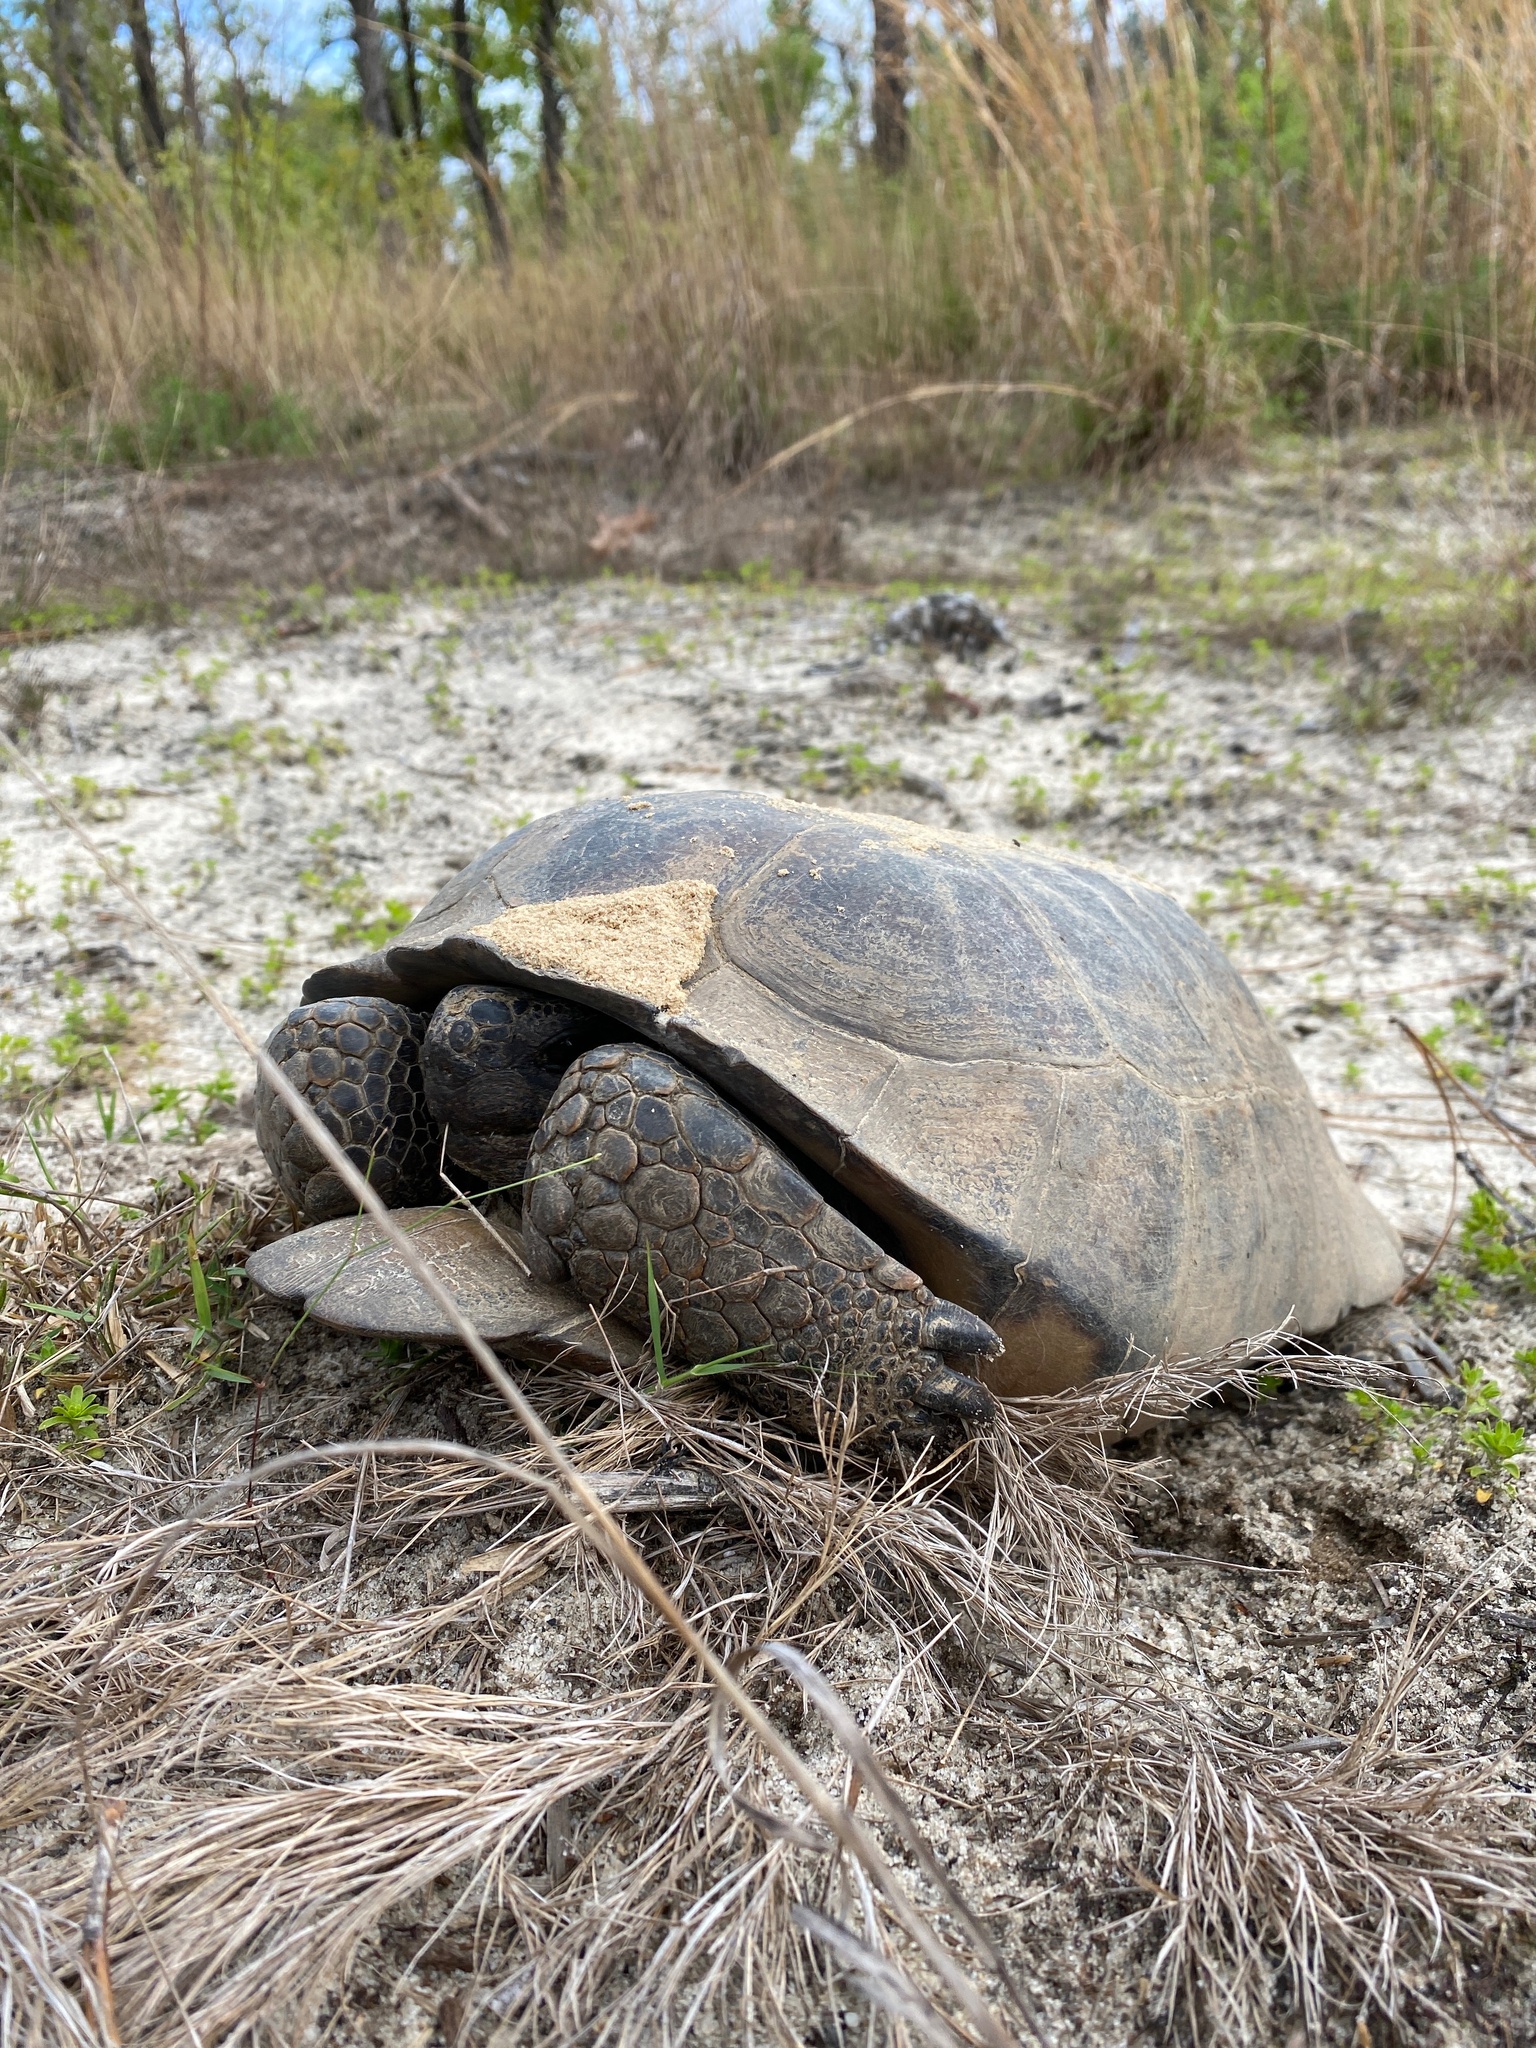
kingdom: Animalia
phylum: Chordata
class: Testudines
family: Testudinidae
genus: Gopherus
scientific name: Gopherus polyphemus
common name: Florida gopher tortoise
